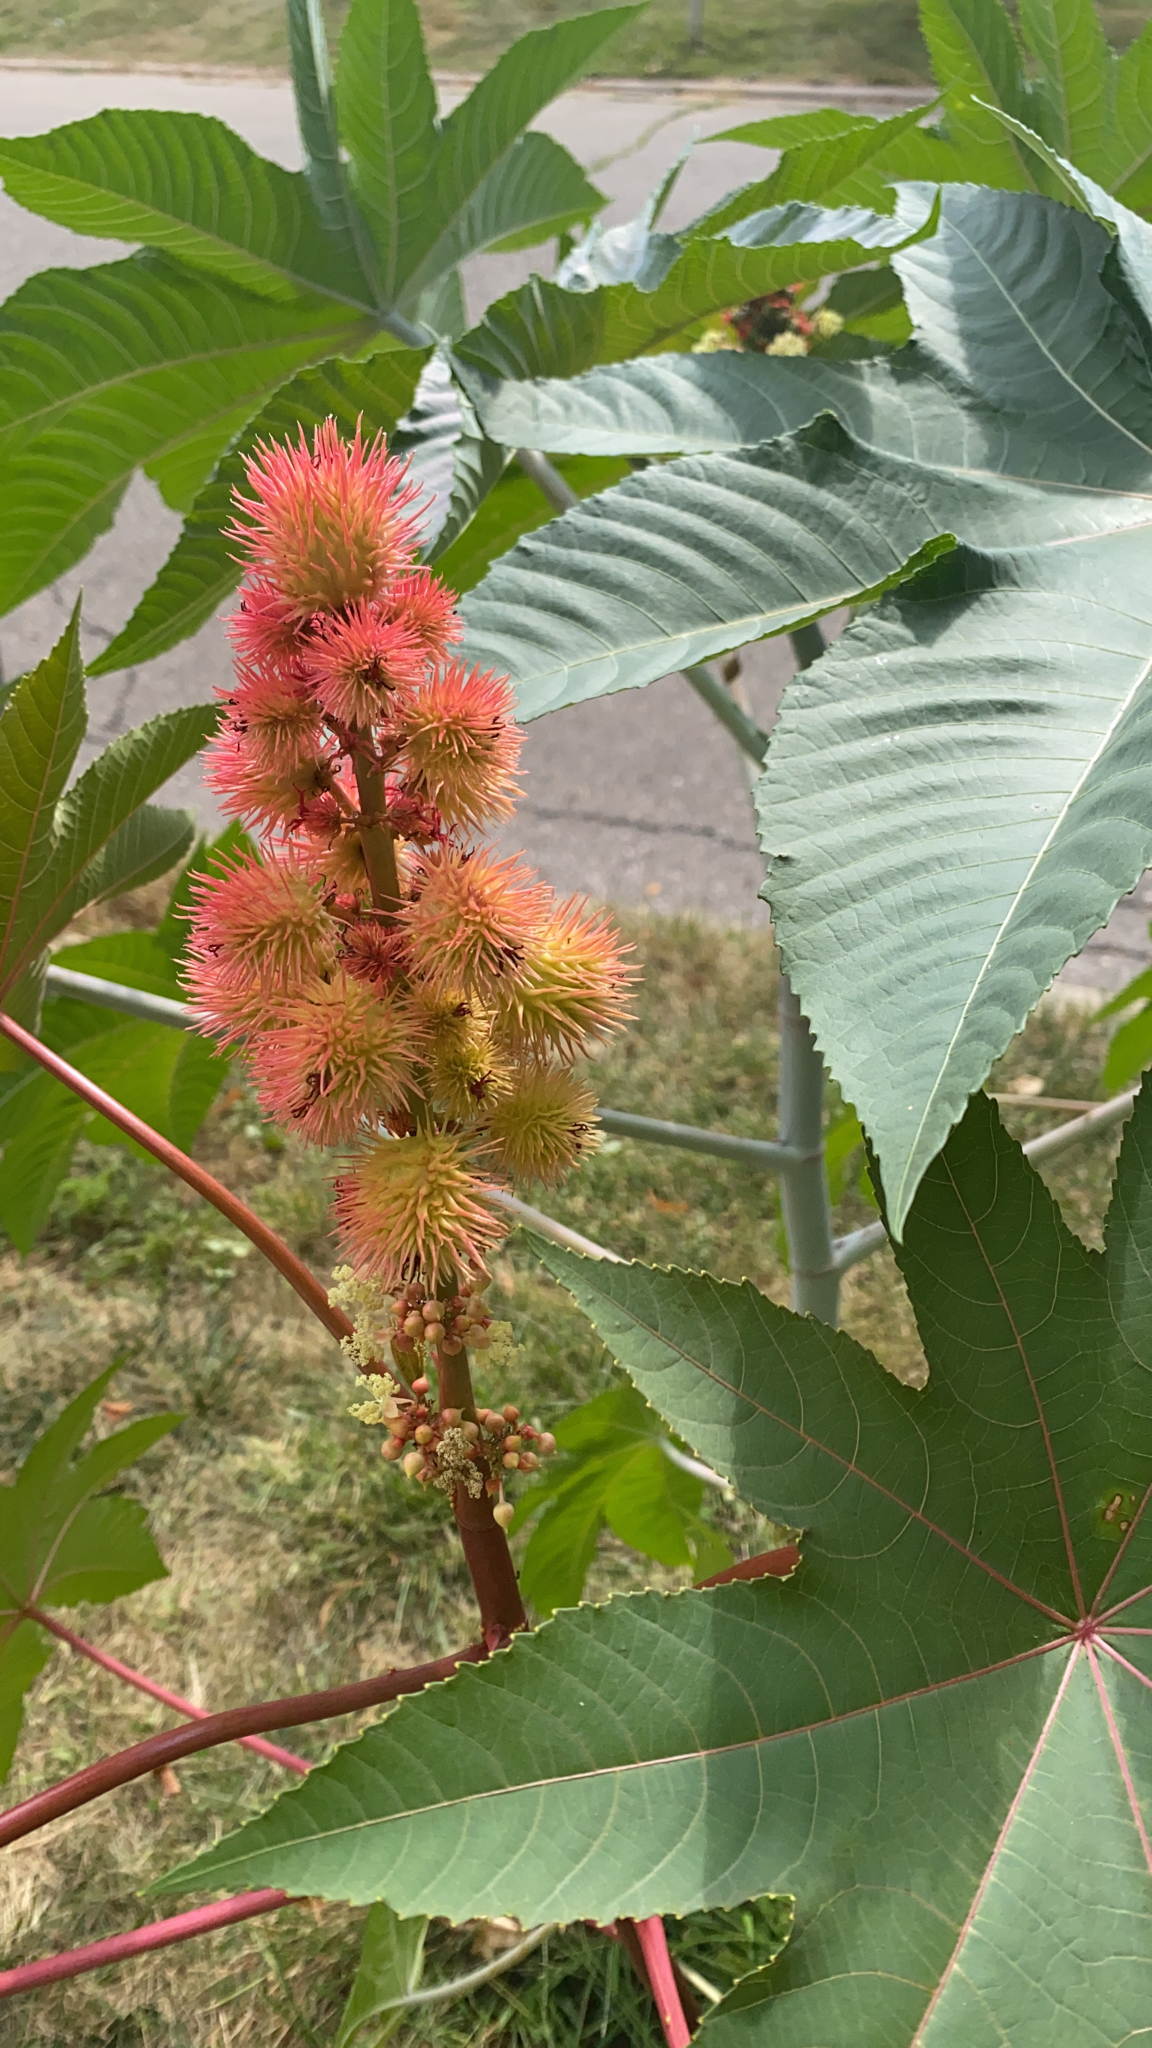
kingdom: Plantae
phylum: Tracheophyta
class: Magnoliopsida
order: Malpighiales
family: Euphorbiaceae
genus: Ricinus
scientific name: Ricinus communis
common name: Castor-oil-plant
